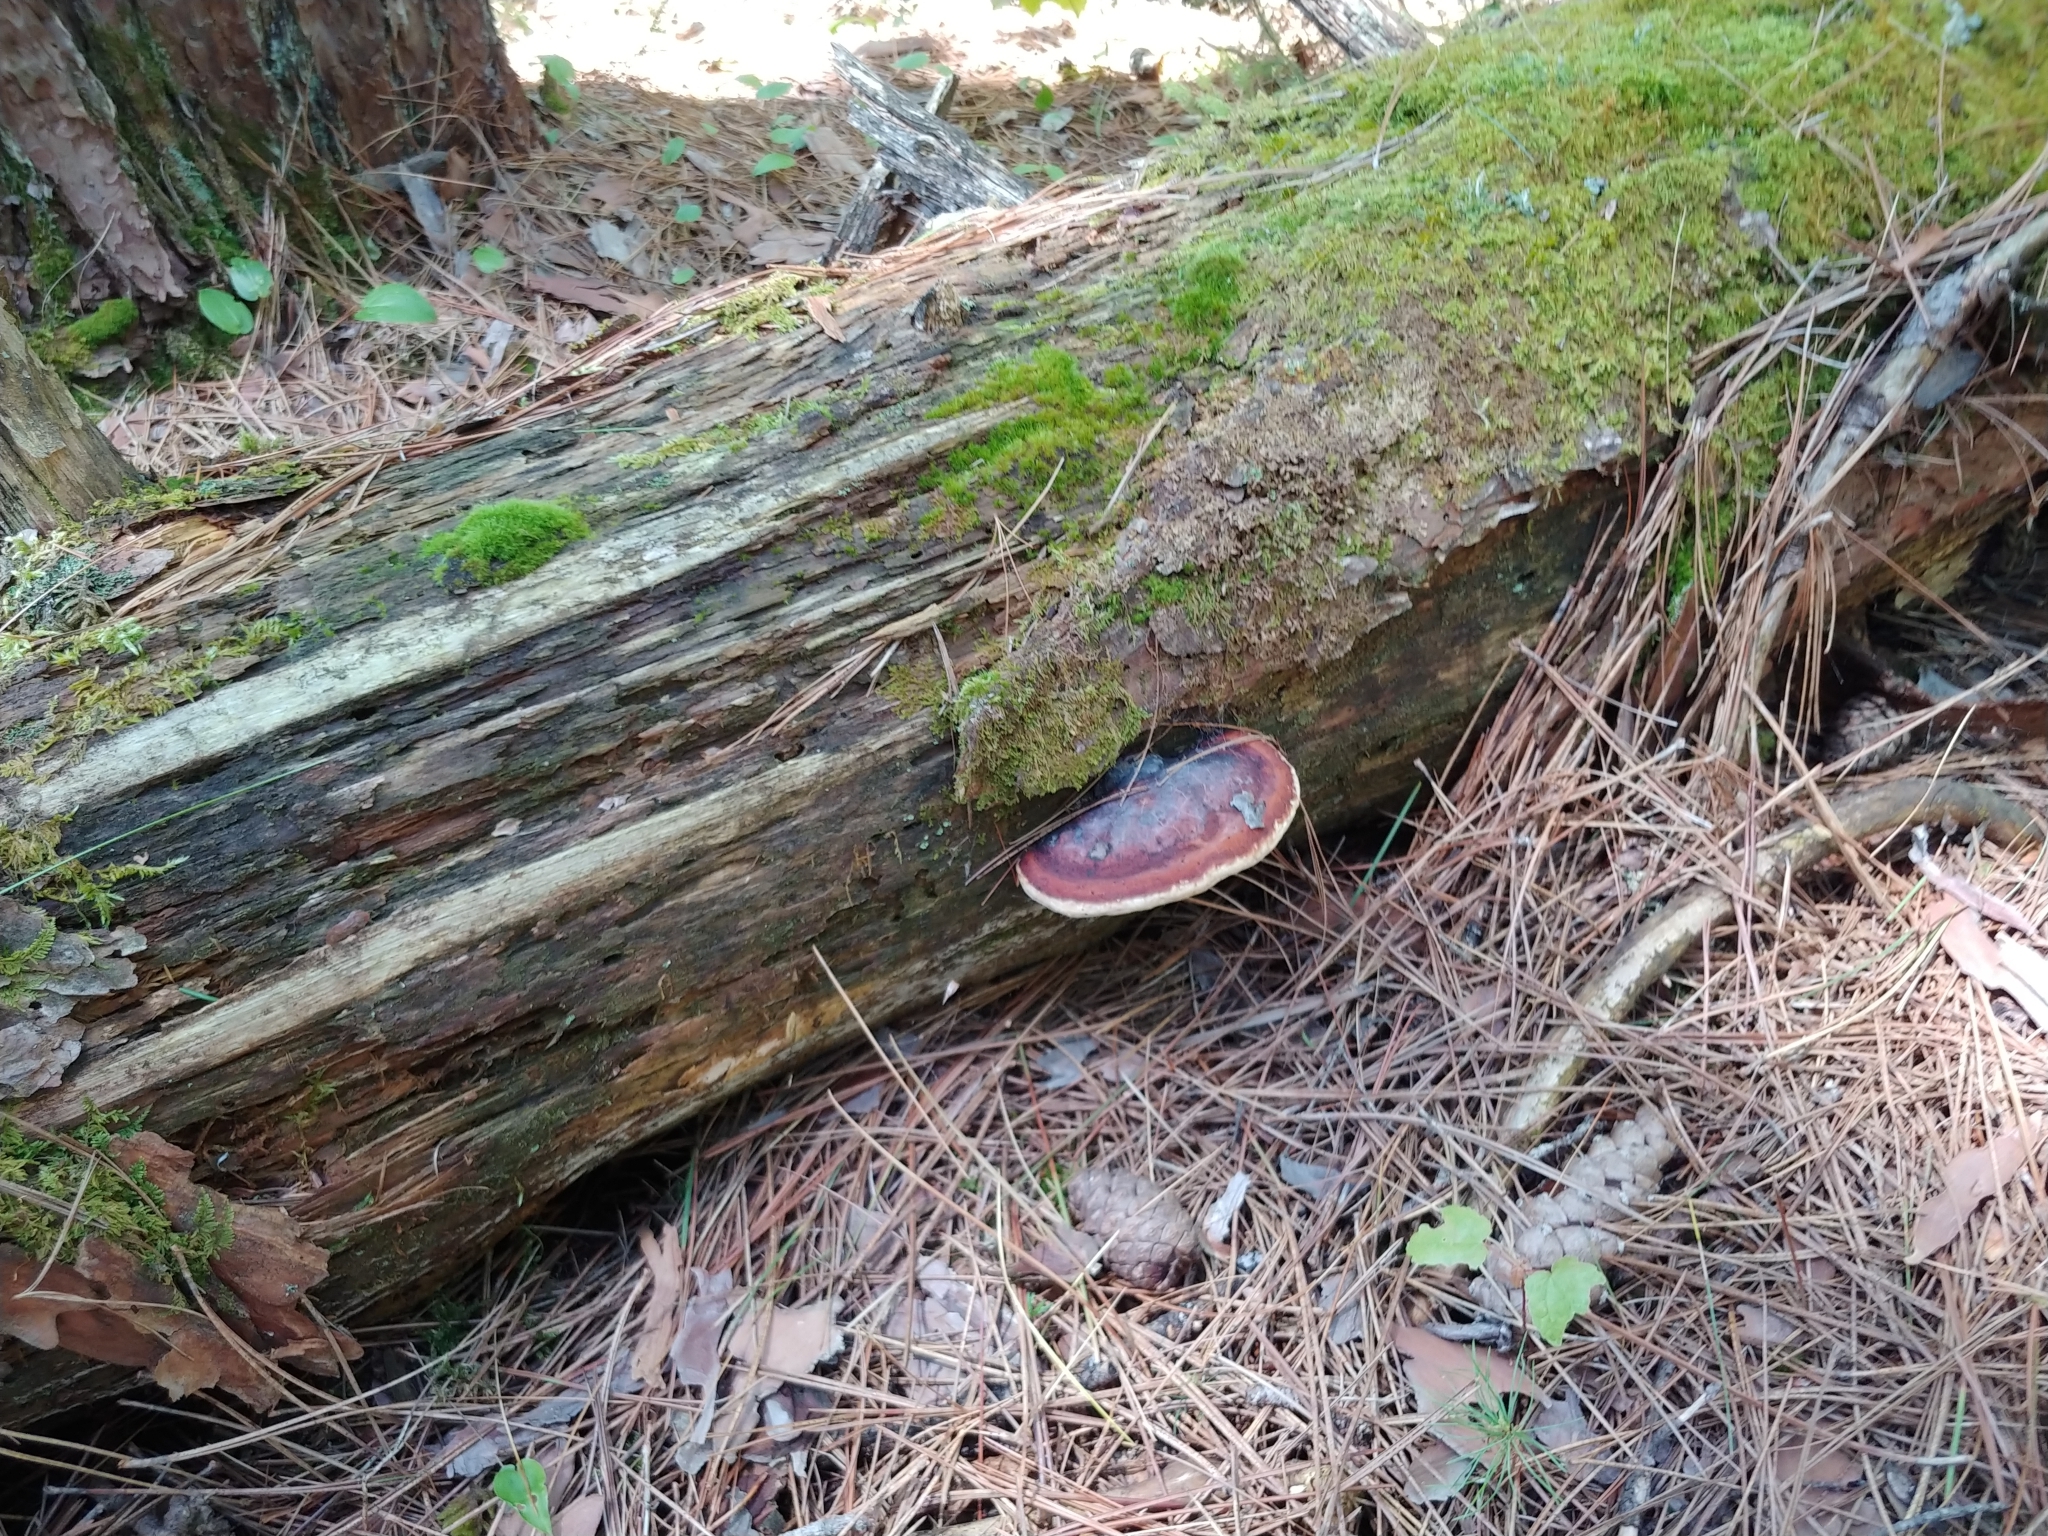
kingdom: Fungi
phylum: Basidiomycota
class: Agaricomycetes
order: Polyporales
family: Fomitopsidaceae
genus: Fomitopsis
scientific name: Fomitopsis mounceae
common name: Northern red belt
